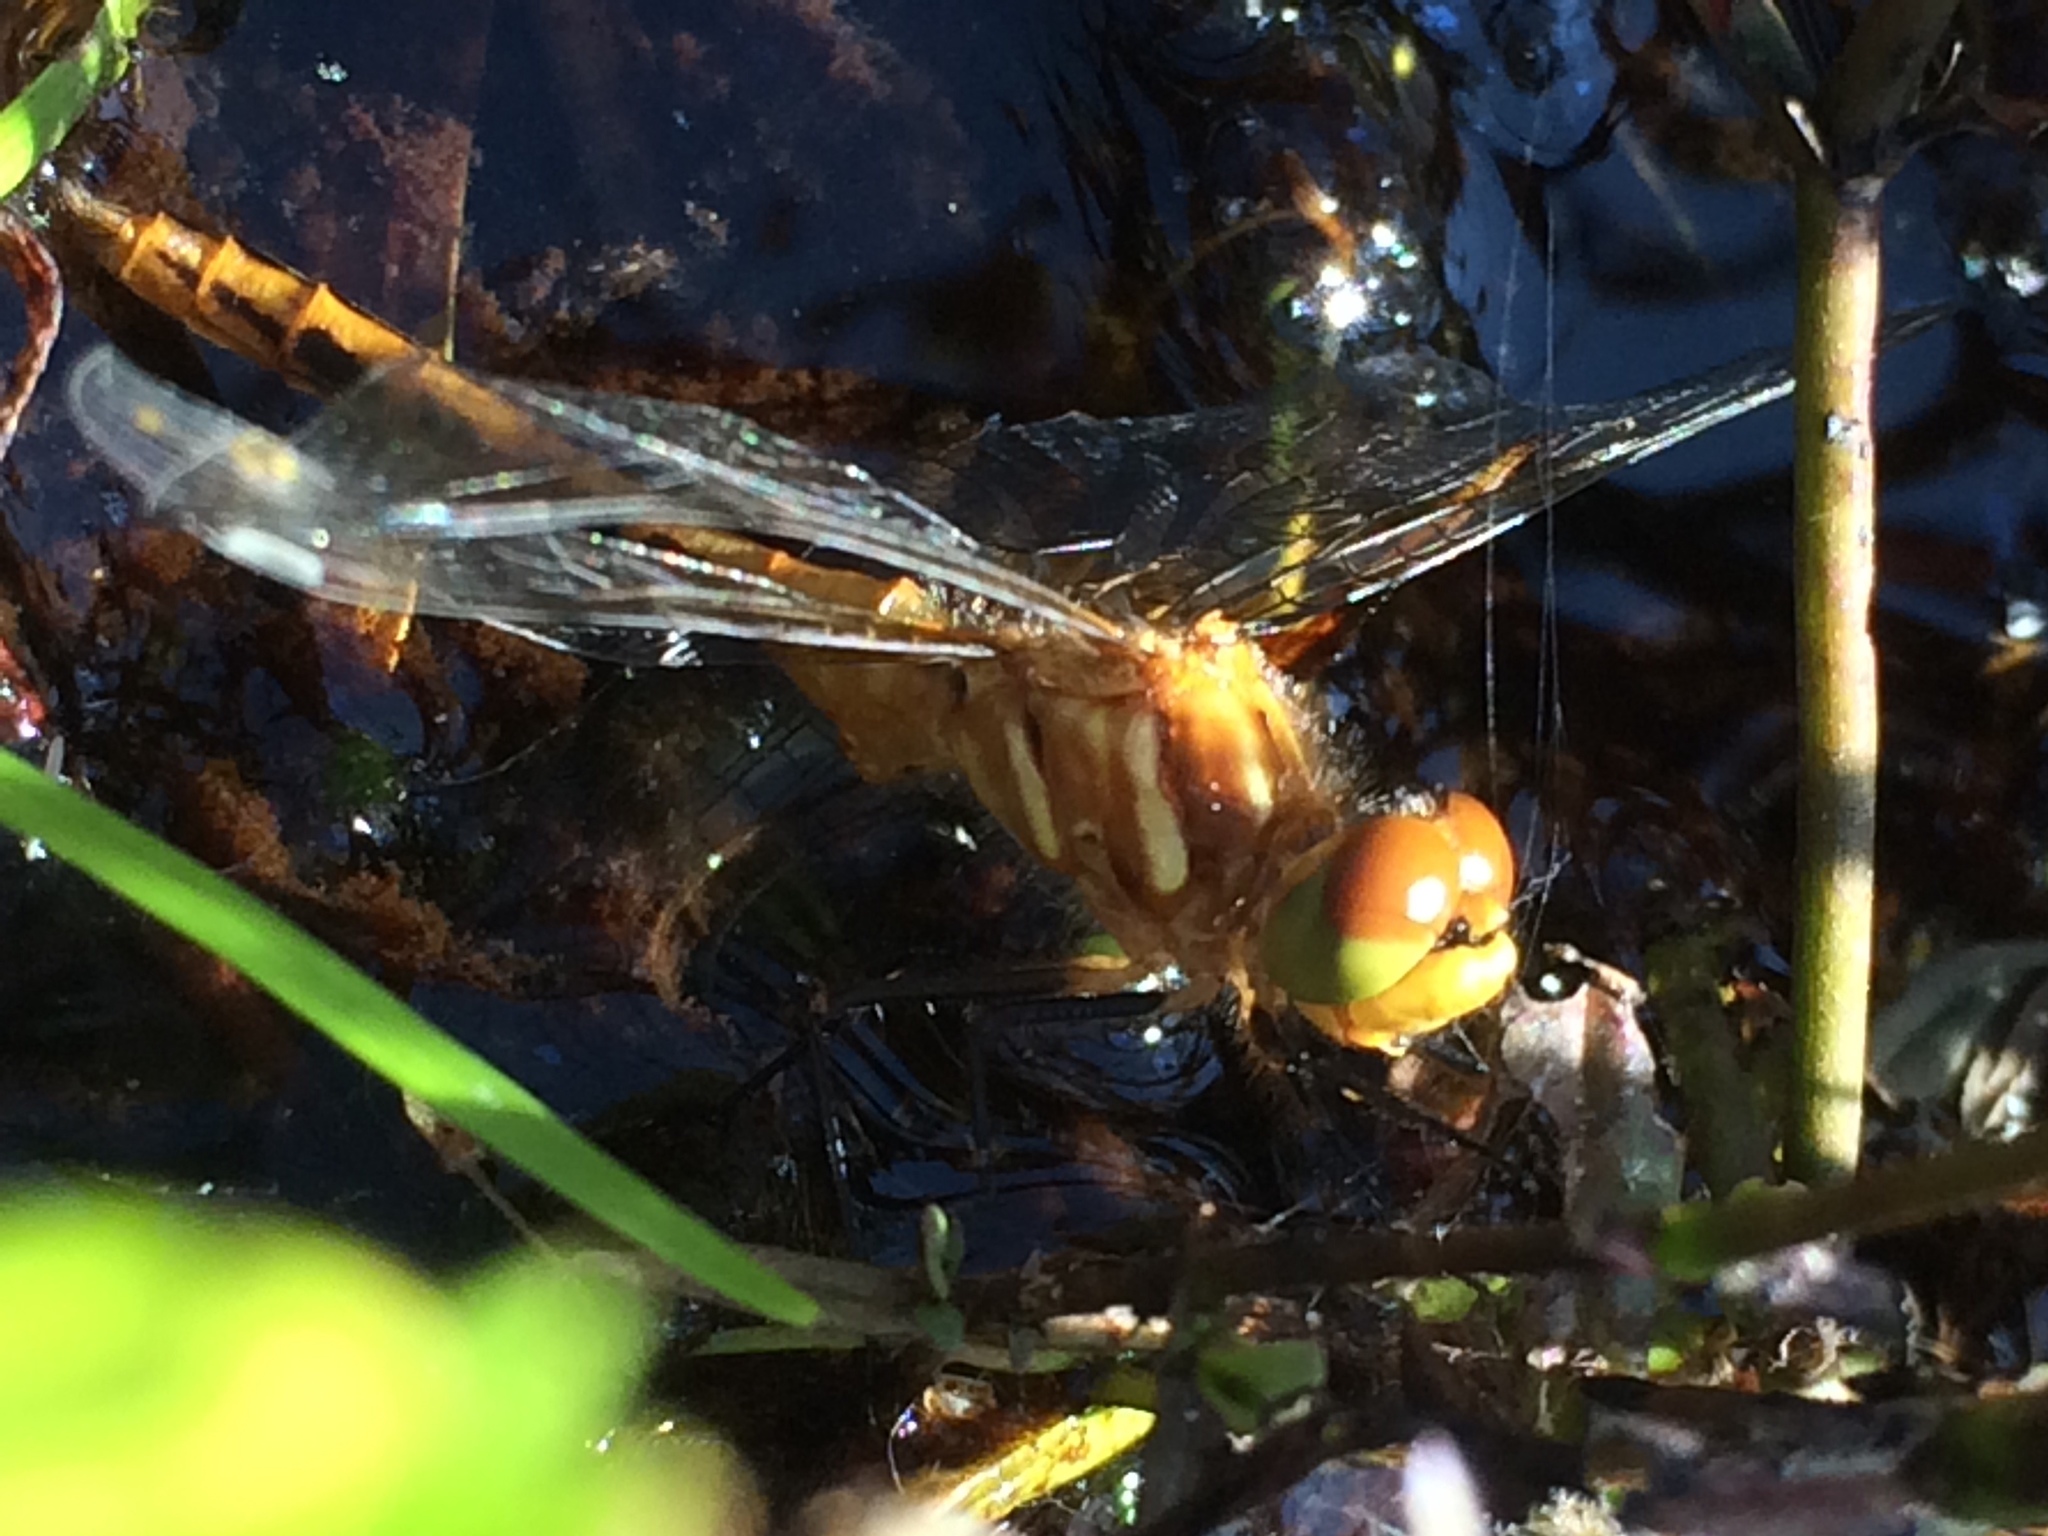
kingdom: Animalia
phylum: Arthropoda
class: Insecta
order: Odonata
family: Libellulidae
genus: Sympetrum
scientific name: Sympetrum pallipes
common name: Striped meadowhawk
